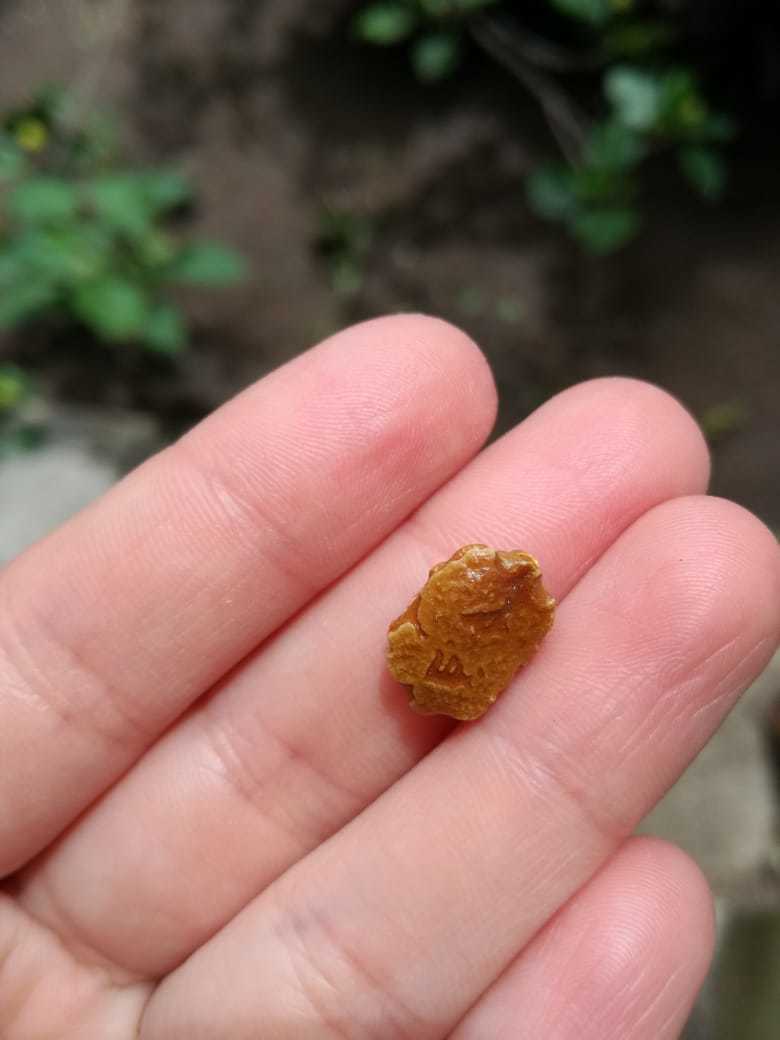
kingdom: Plantae
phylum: Tracheophyta
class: Magnoliopsida
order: Cucurbitales
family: Cucurbitaceae
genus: Momordica
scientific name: Momordica charantia
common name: Balsampear
